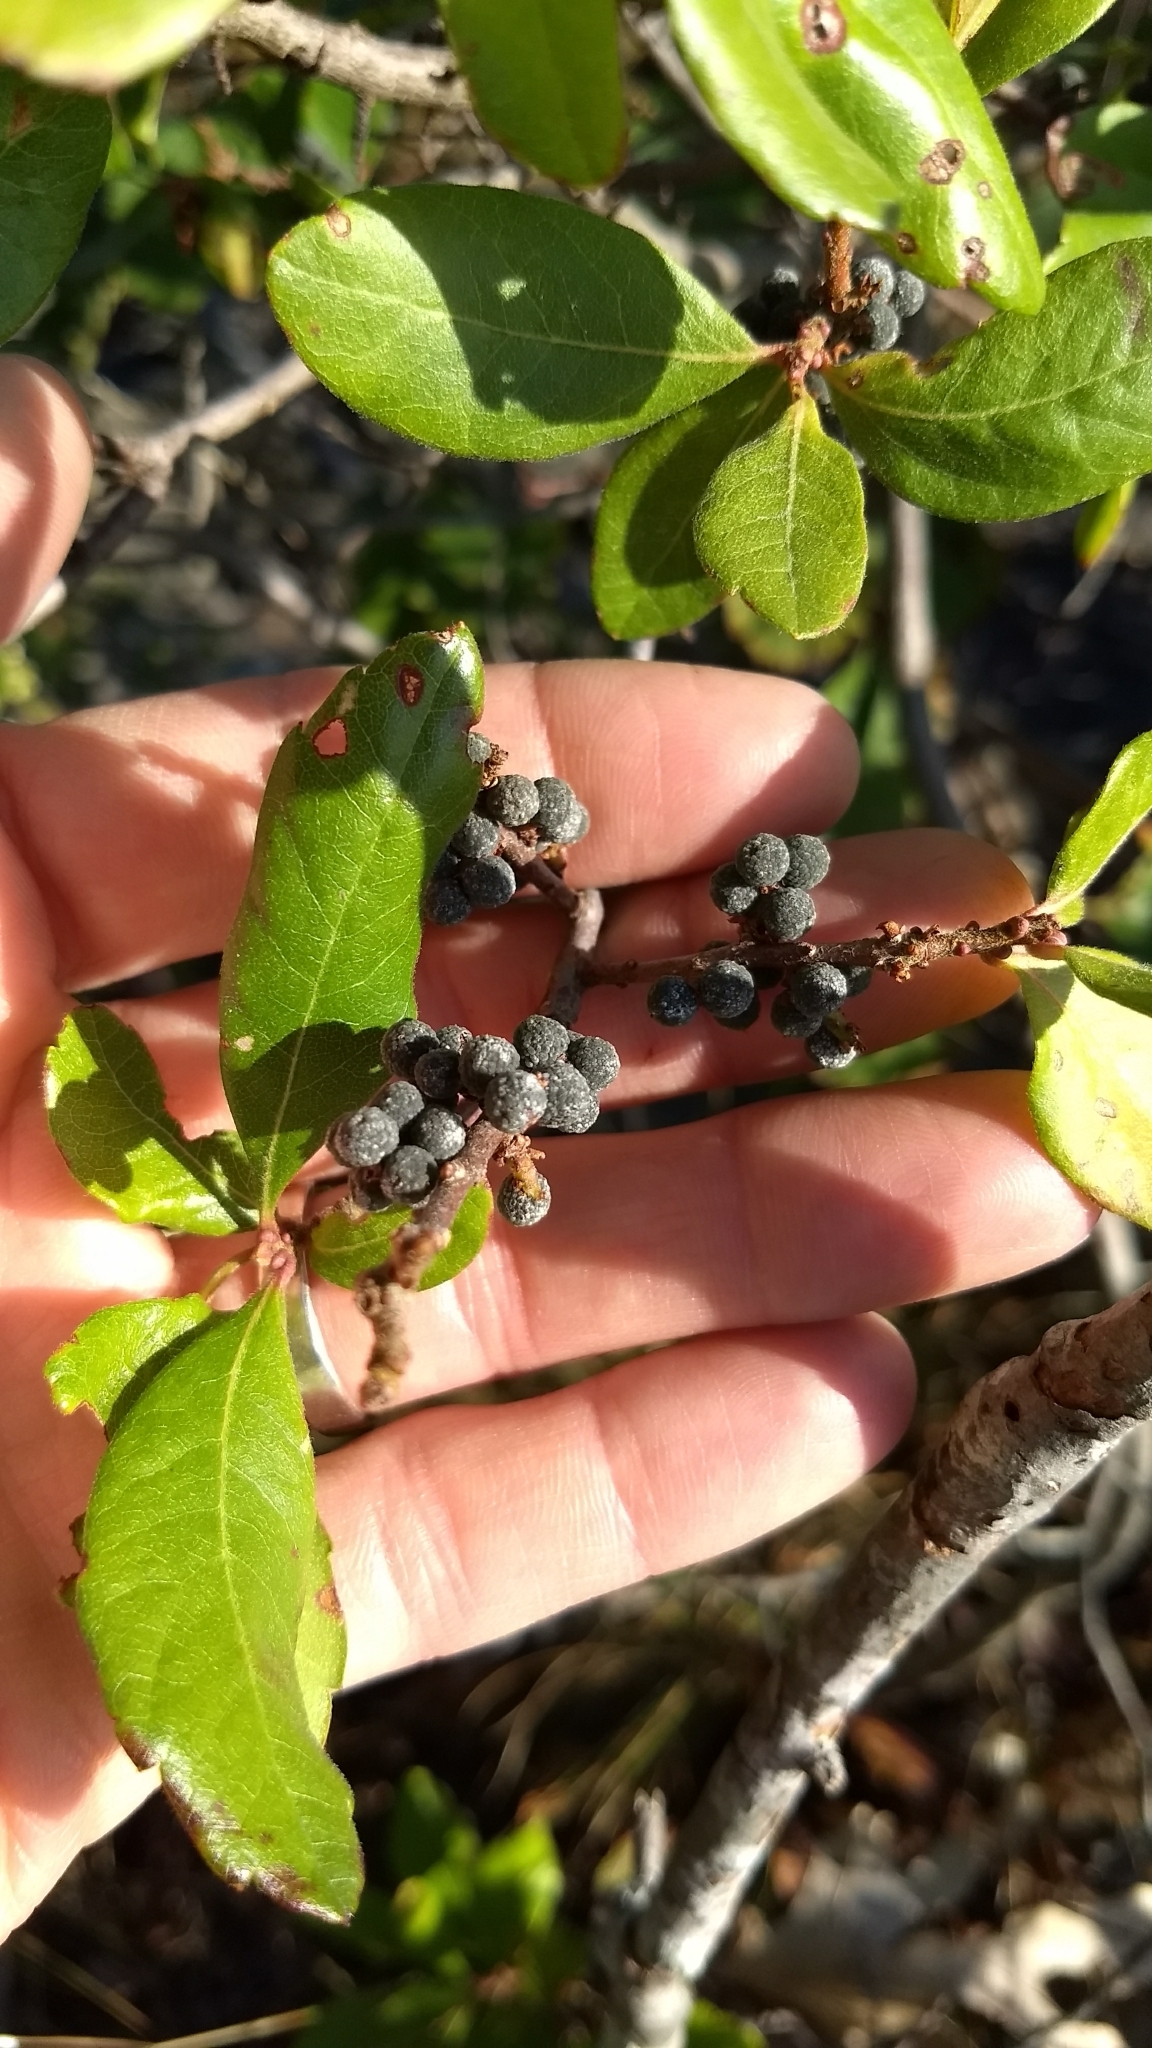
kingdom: Plantae
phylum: Tracheophyta
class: Magnoliopsida
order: Fagales
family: Myricaceae
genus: Morella
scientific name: Morella pensylvanica
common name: Northern bayberry
